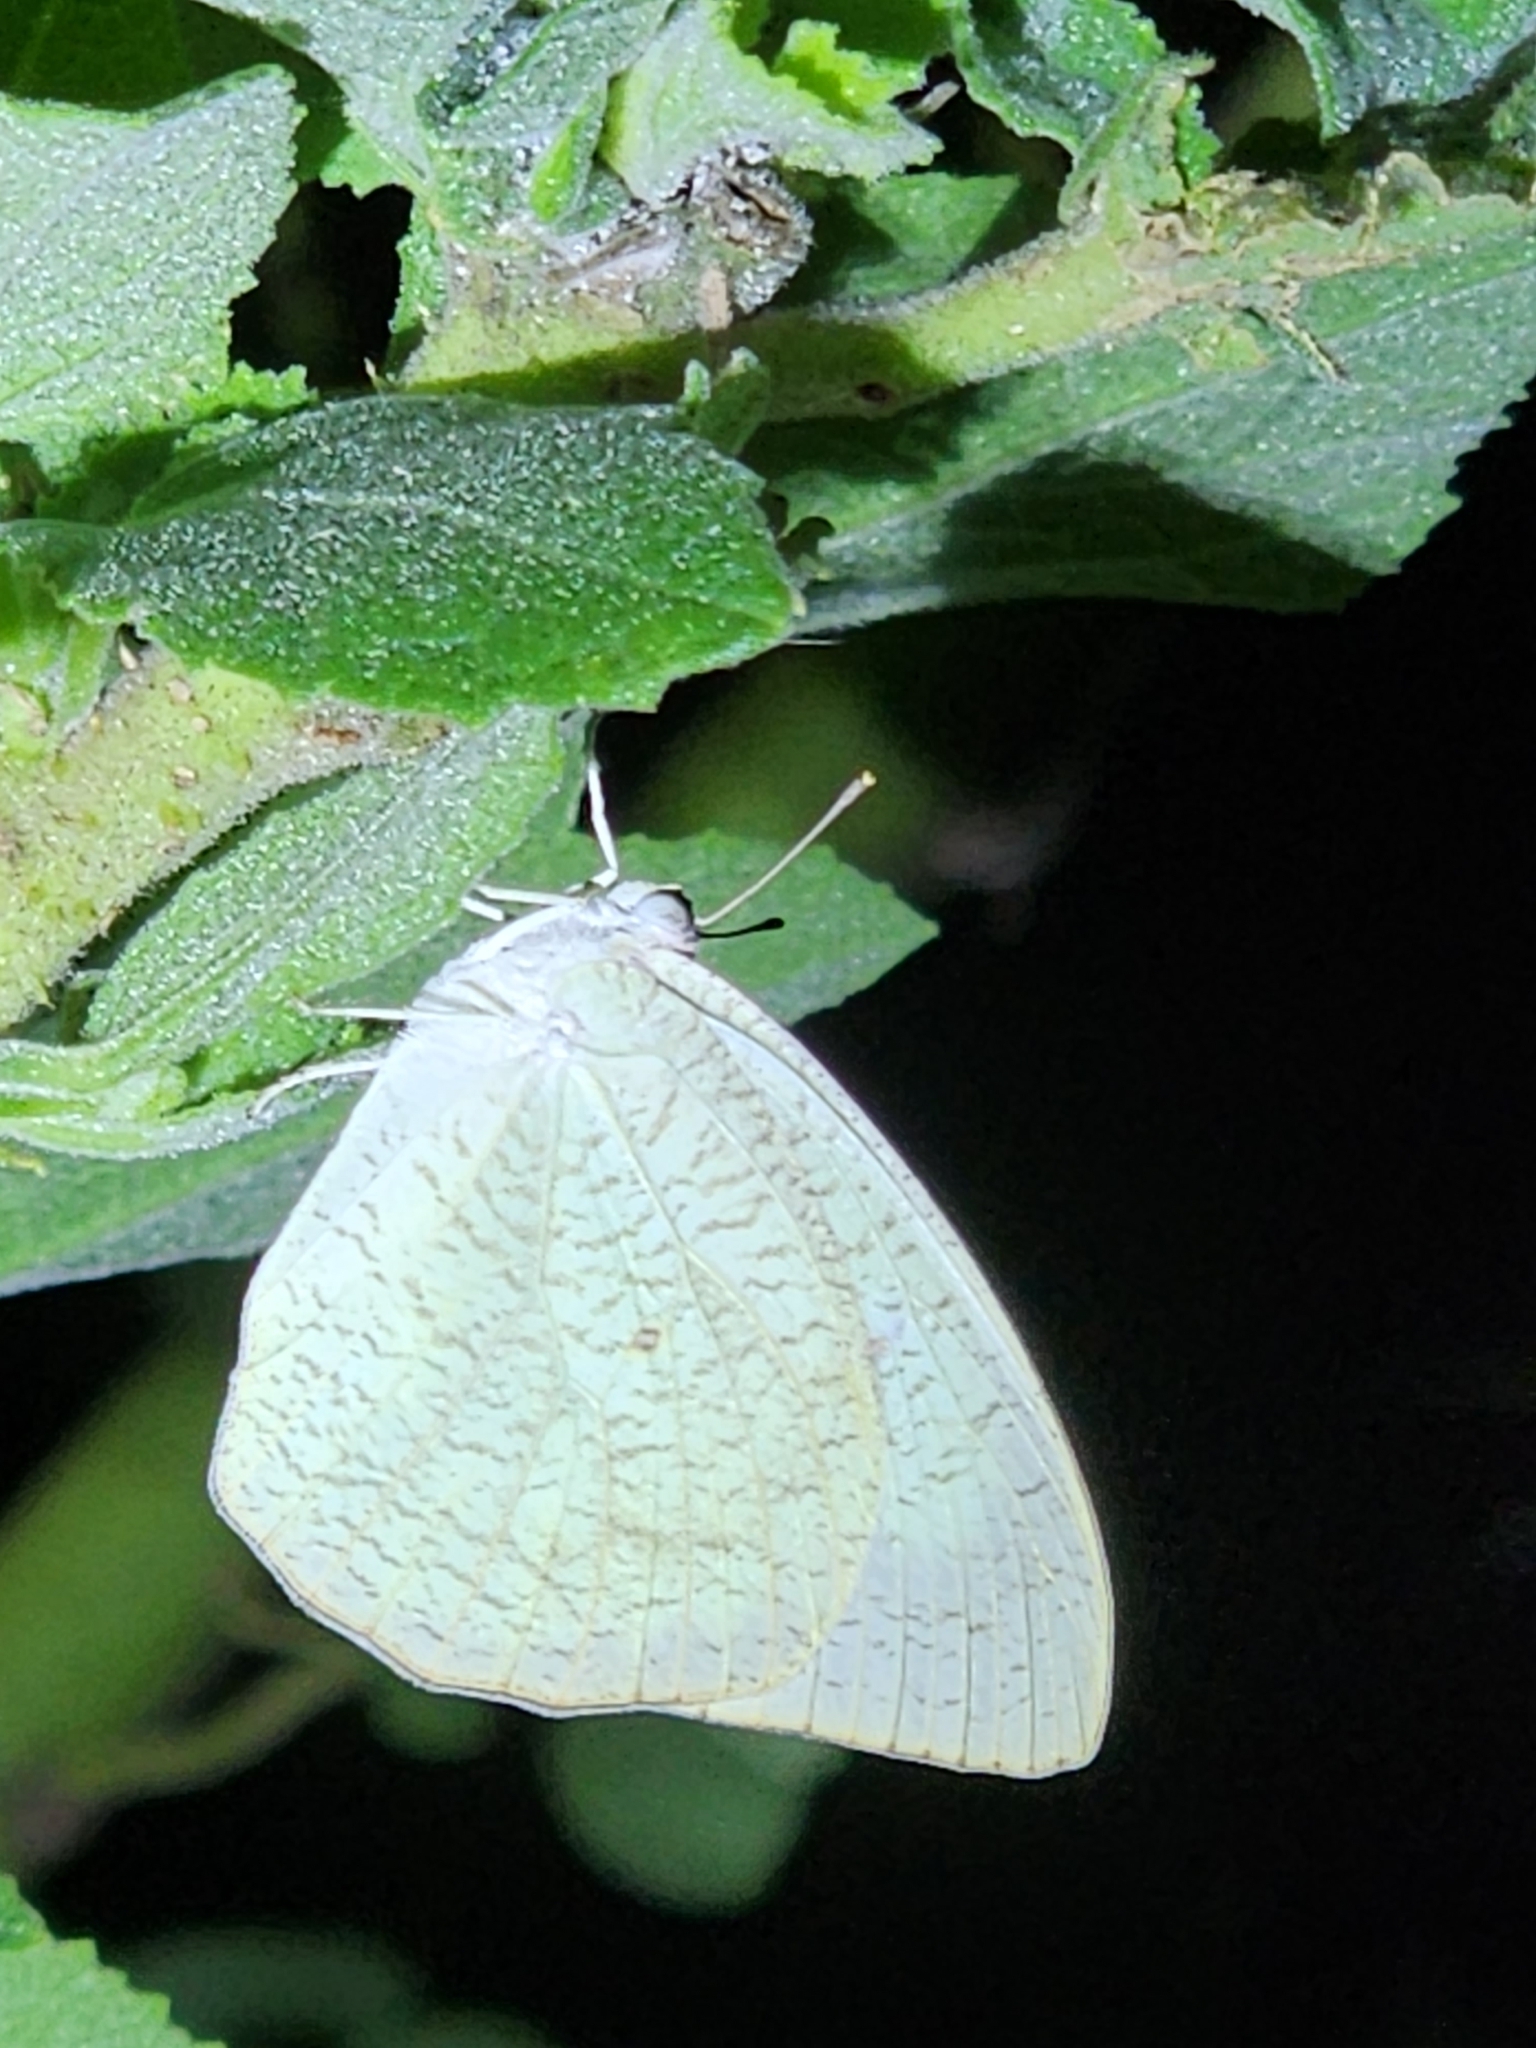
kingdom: Animalia
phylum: Arthropoda
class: Insecta
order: Lepidoptera
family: Pieridae
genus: Catopsilia
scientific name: Catopsilia pyranthe
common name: Mottled emigrant
